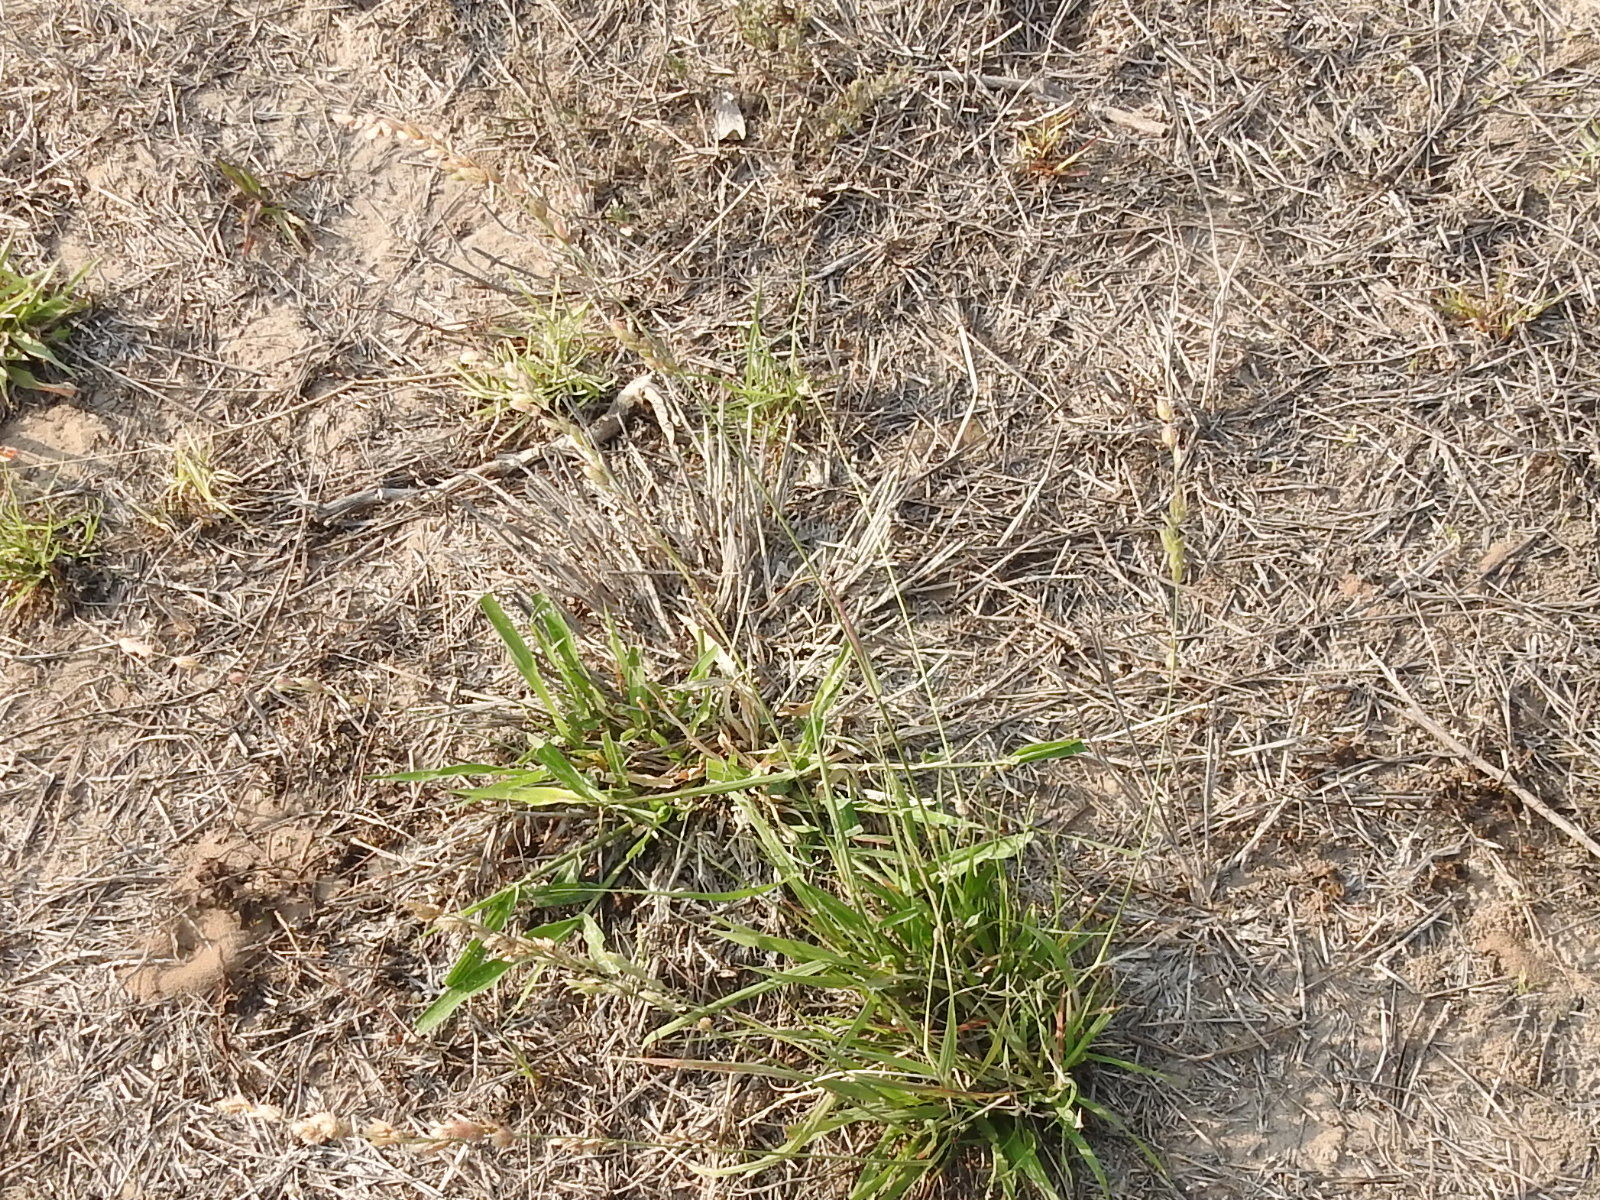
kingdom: Plantae
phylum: Tracheophyta
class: Liliopsida
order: Poales
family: Poaceae
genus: Eragrostis
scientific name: Eragrostis superba
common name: Wilman lovegrass
